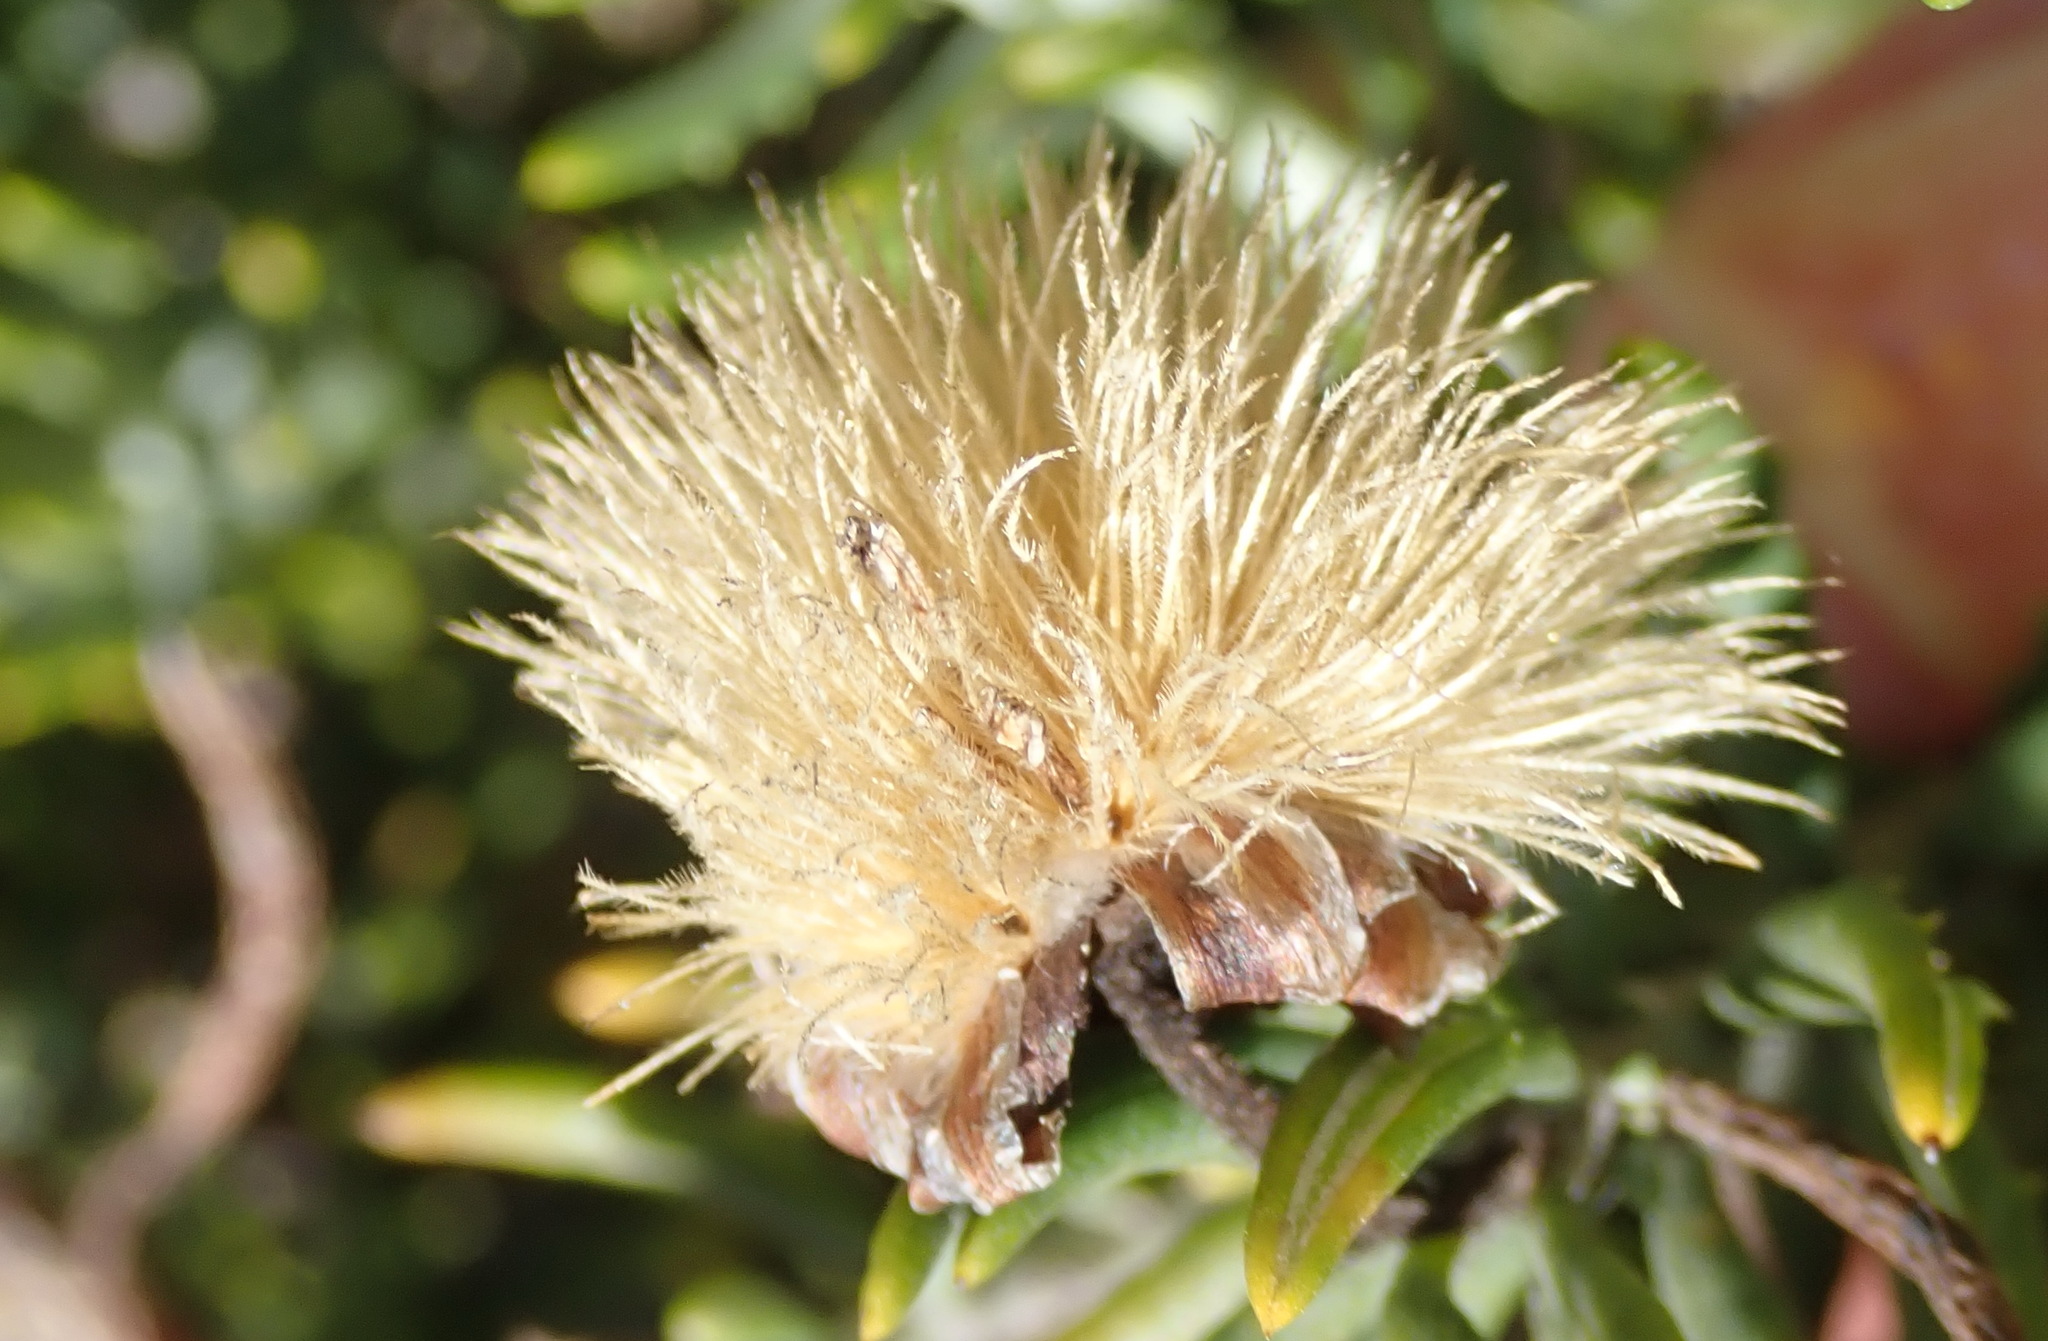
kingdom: Plantae
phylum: Tracheophyta
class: Magnoliopsida
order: Asterales
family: Asteraceae
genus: Heterolepis
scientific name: Heterolepis aliena
